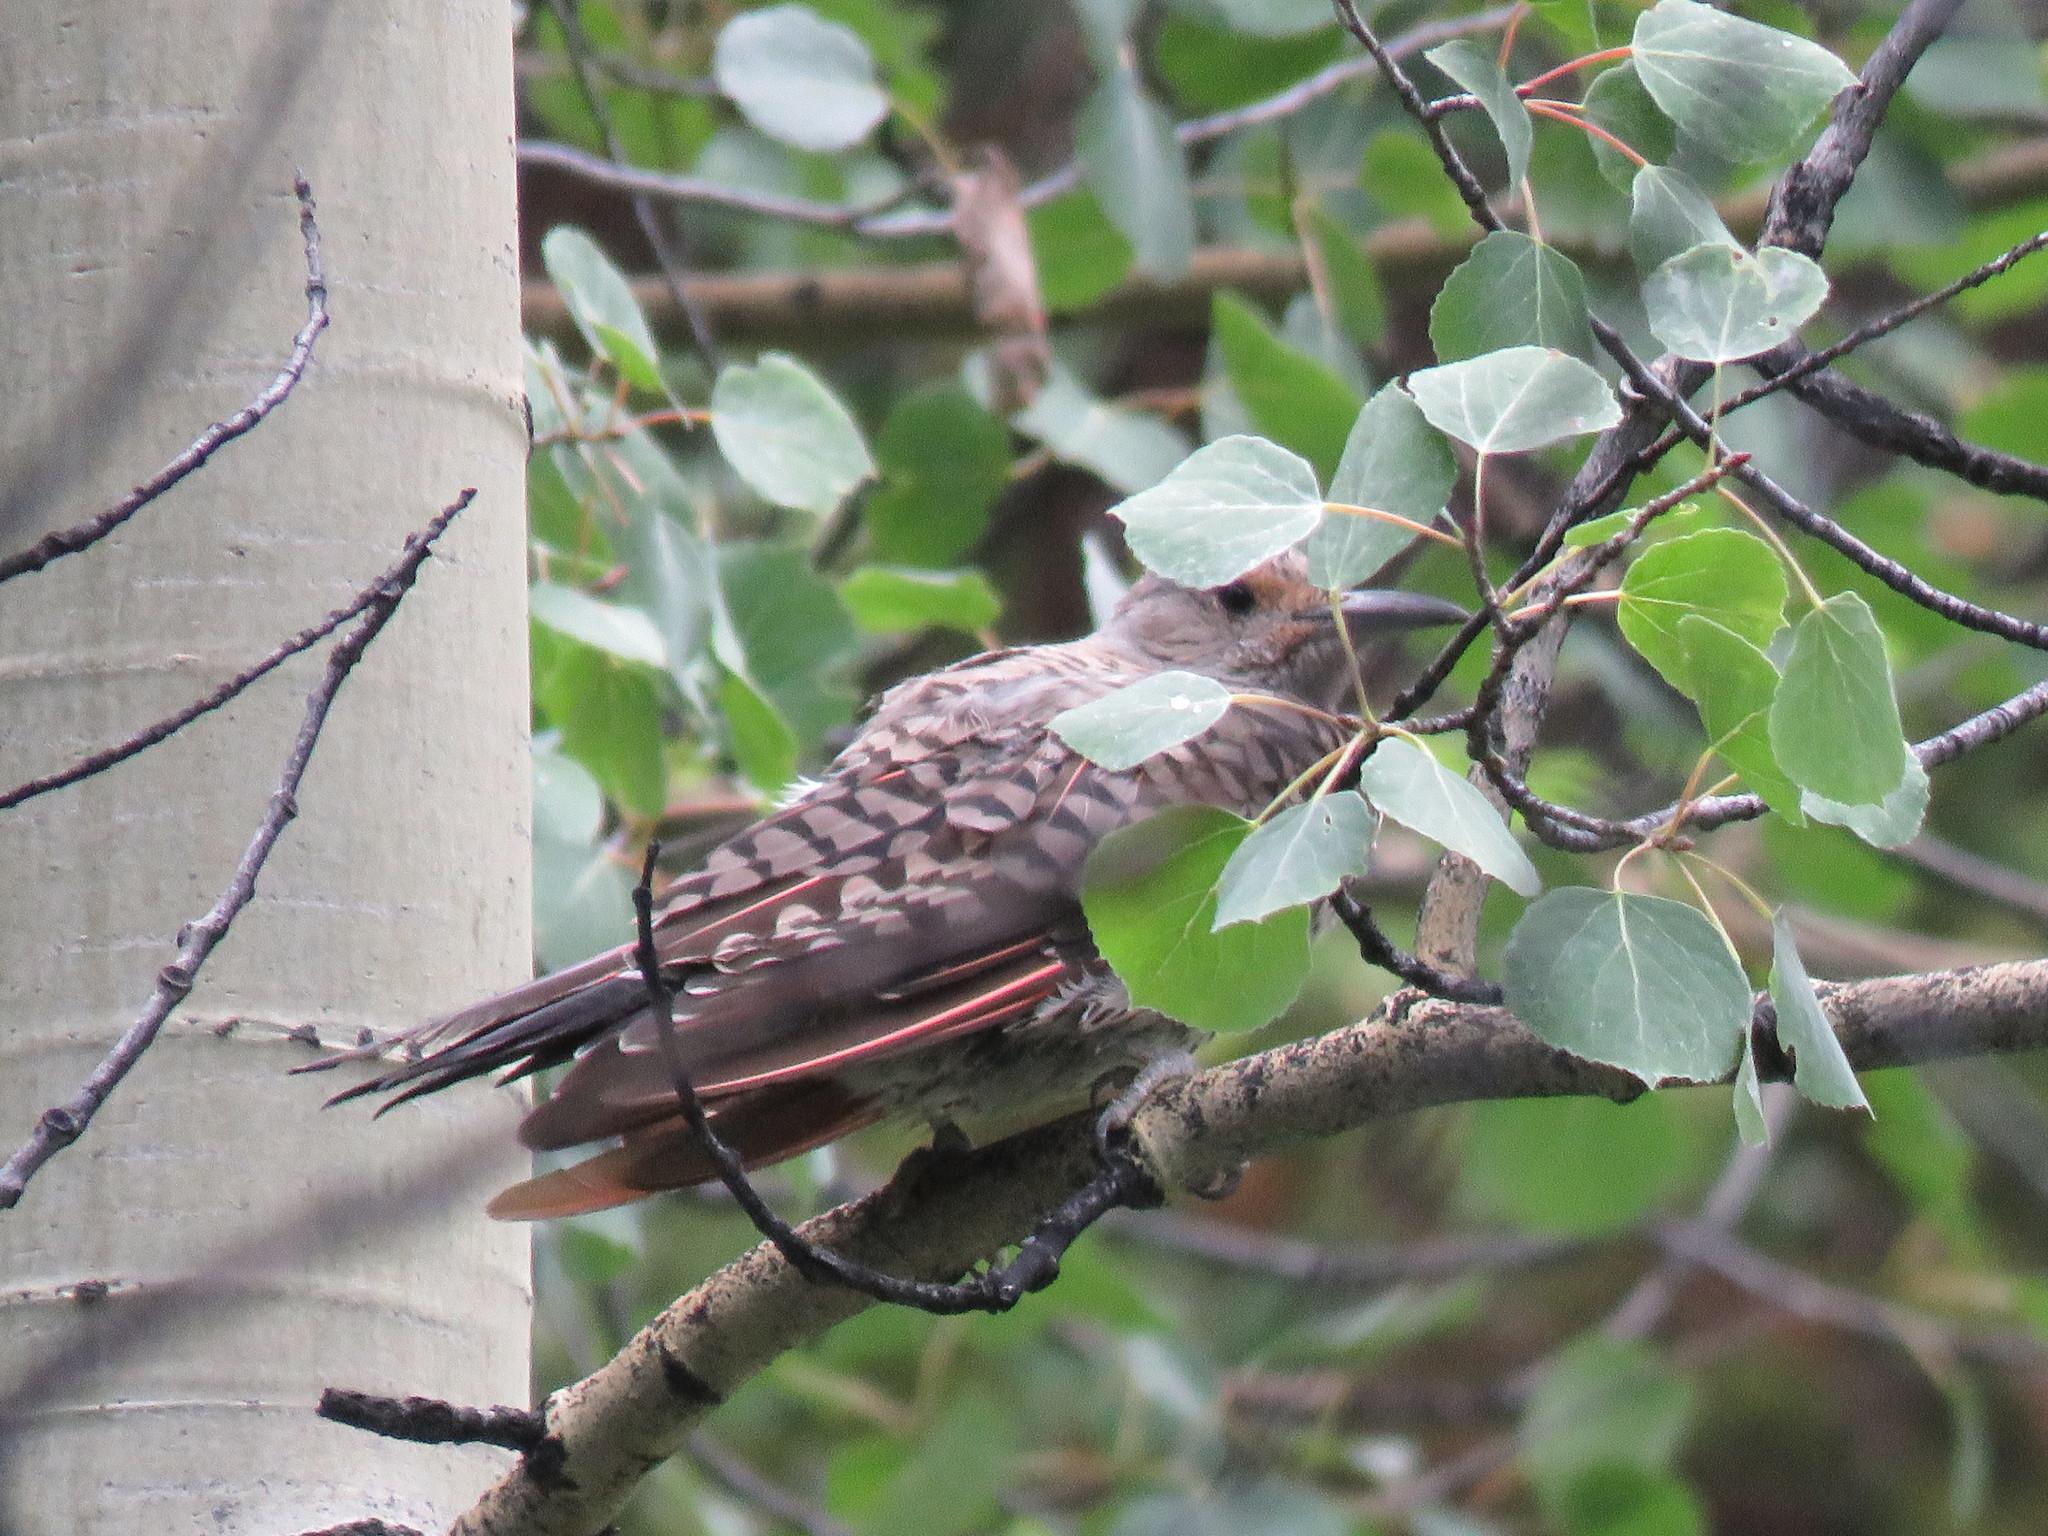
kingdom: Animalia
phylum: Chordata
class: Aves
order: Piciformes
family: Picidae
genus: Colaptes
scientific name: Colaptes auratus
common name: Northern flicker
